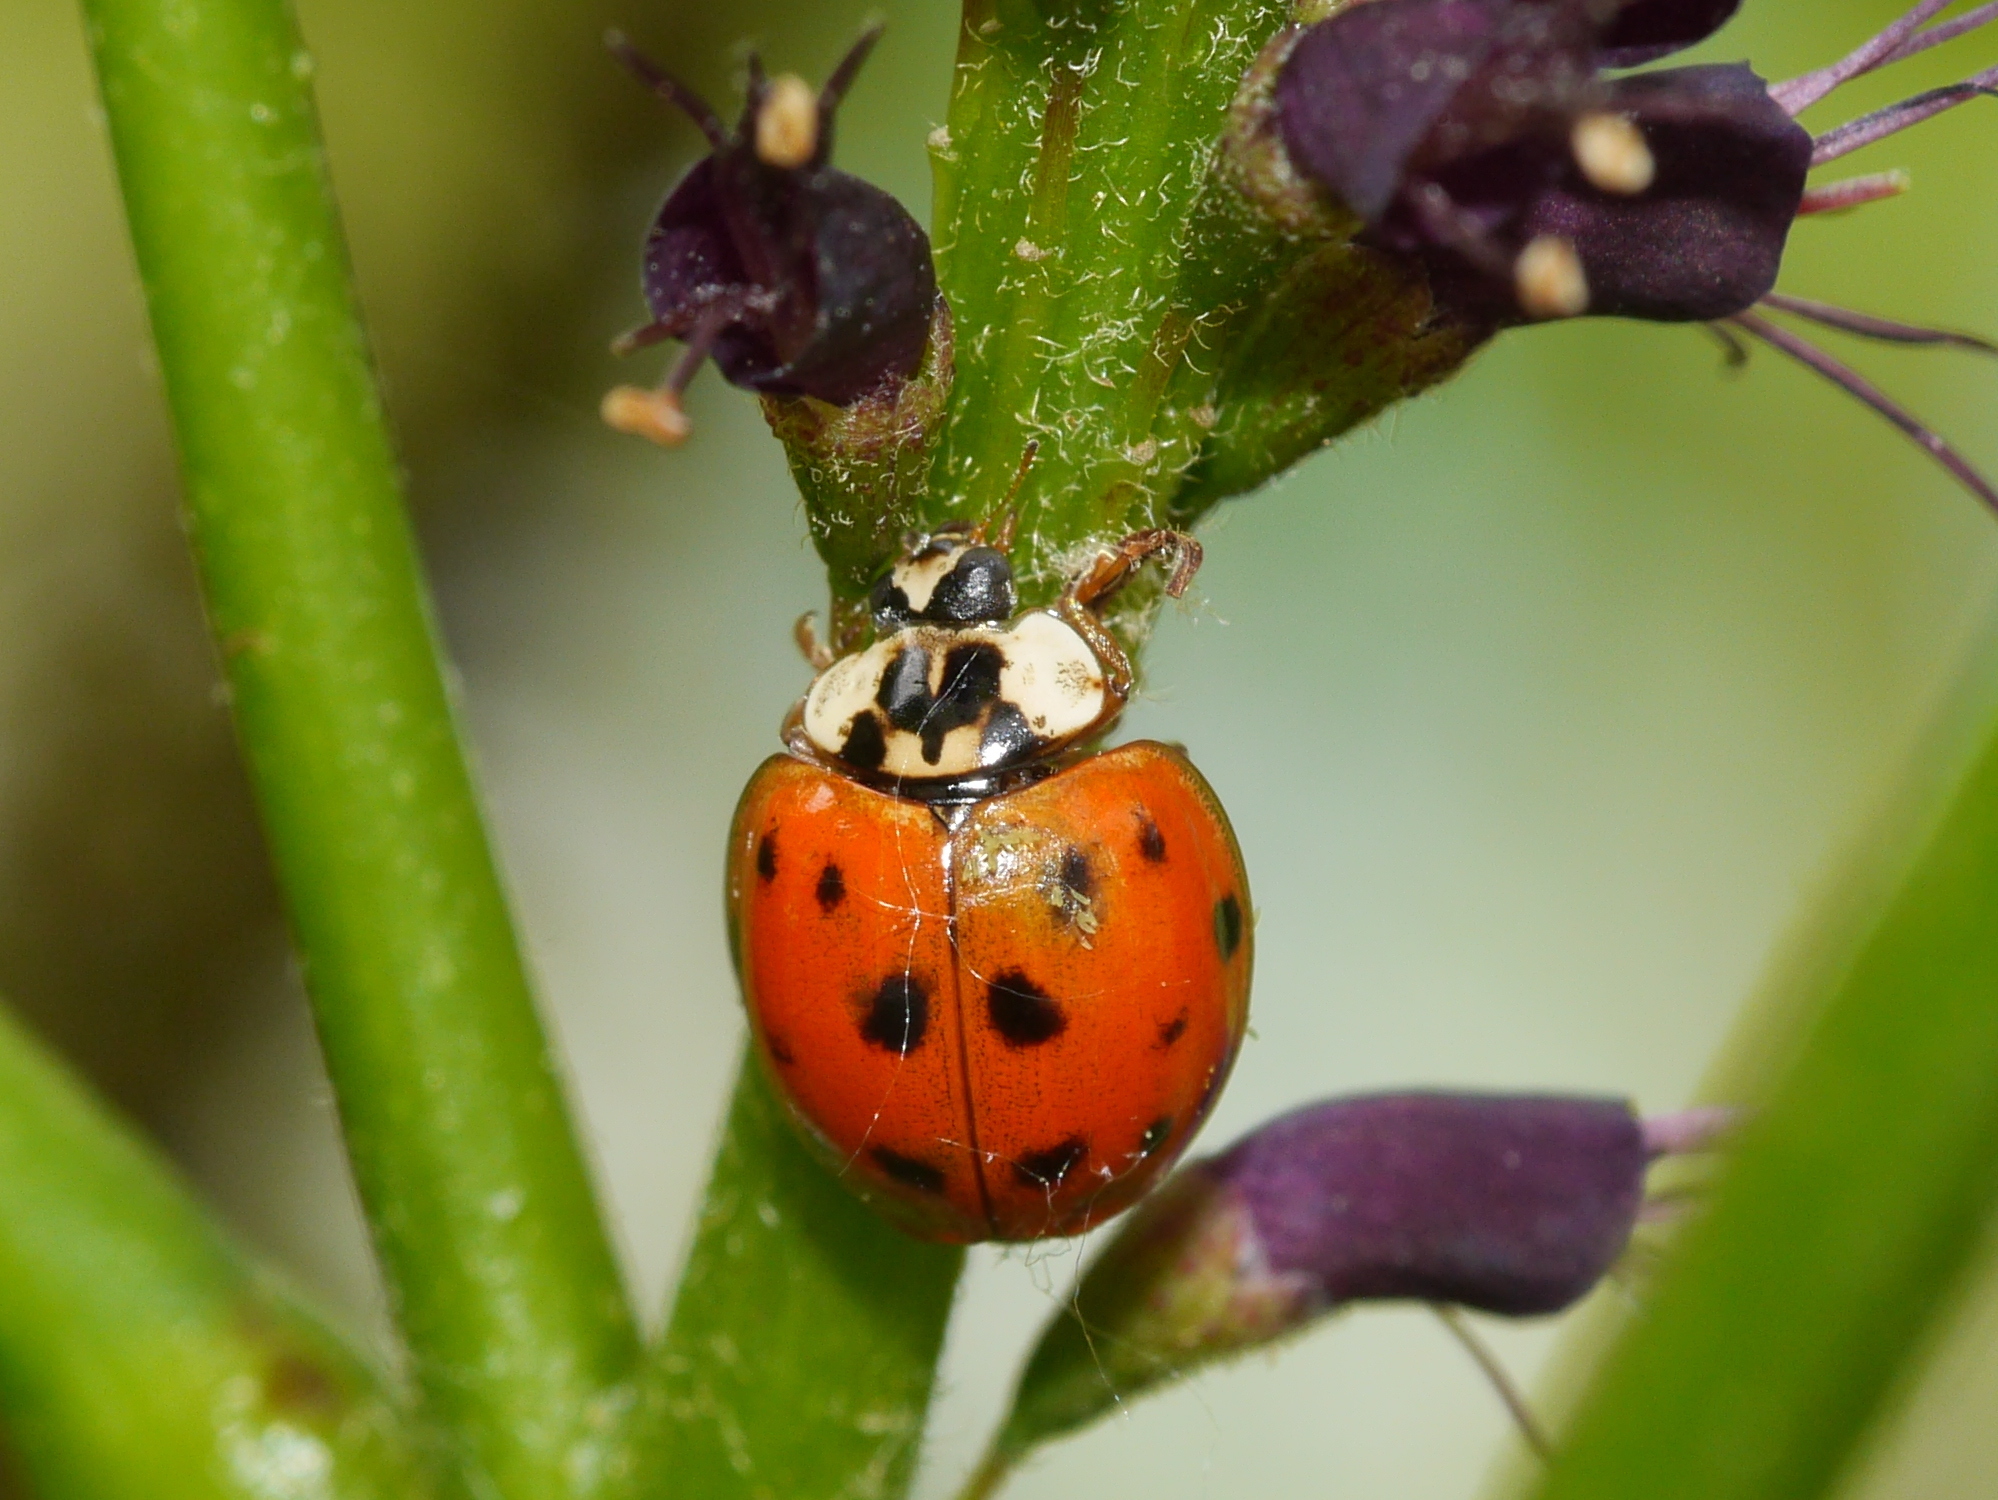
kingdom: Animalia
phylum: Arthropoda
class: Insecta
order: Coleoptera
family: Coccinellidae
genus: Harmonia
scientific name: Harmonia axyridis
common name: Harlequin ladybird
